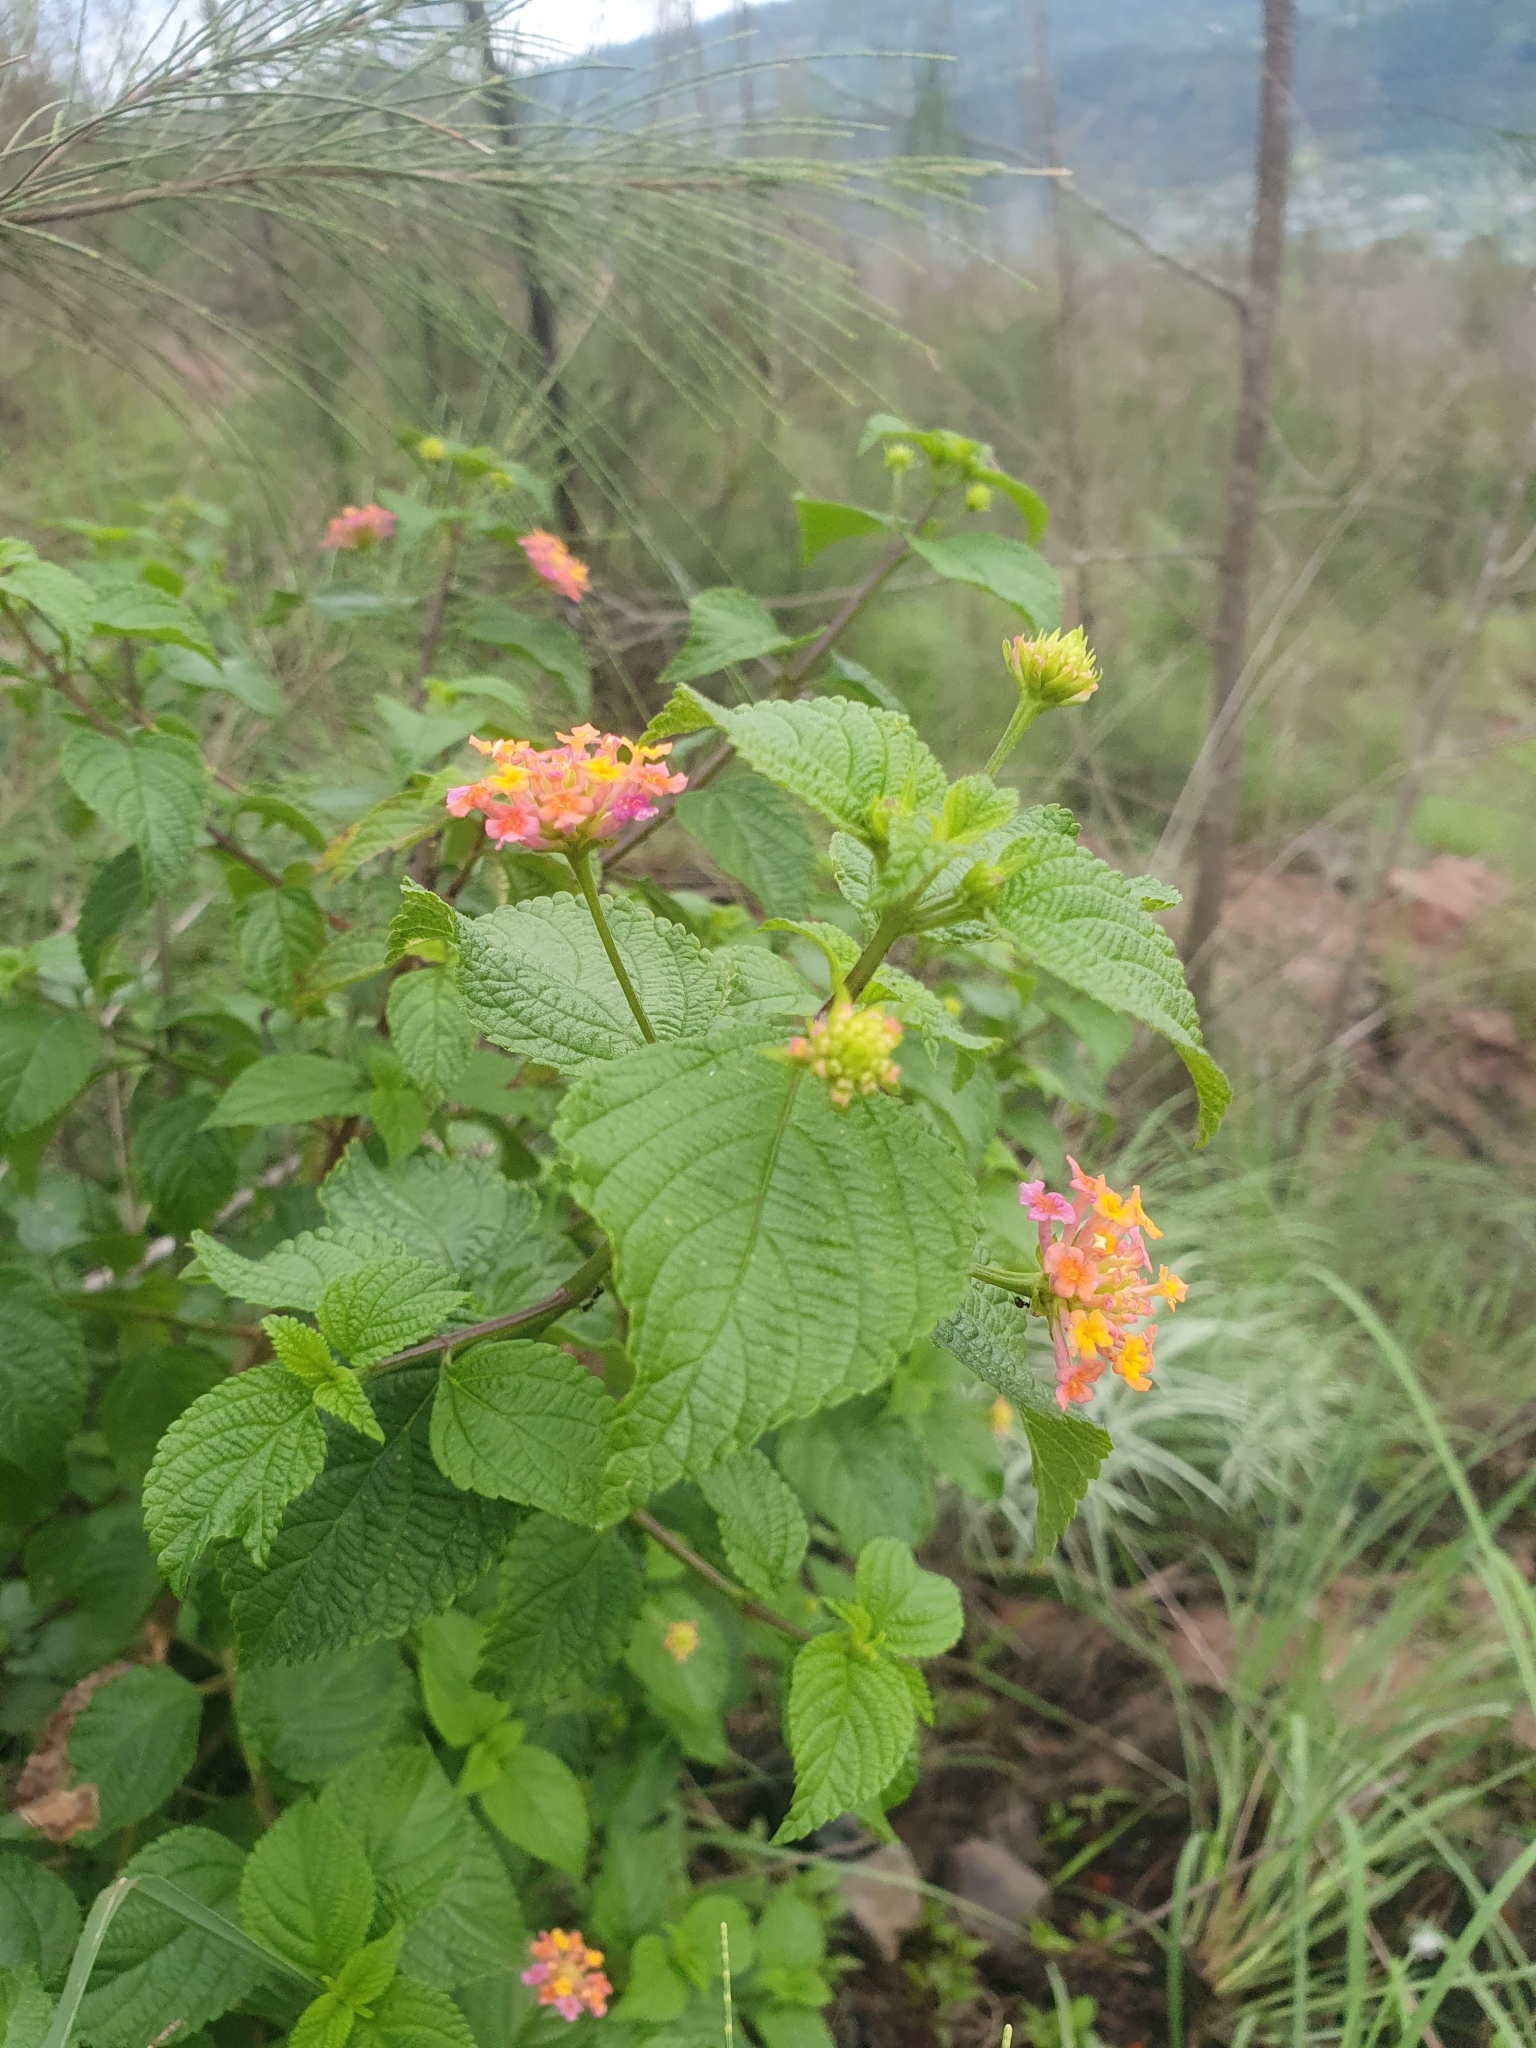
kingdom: Plantae
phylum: Tracheophyta
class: Magnoliopsida
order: Lamiales
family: Verbenaceae
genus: Lantana
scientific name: Lantana camara
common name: Lantana
